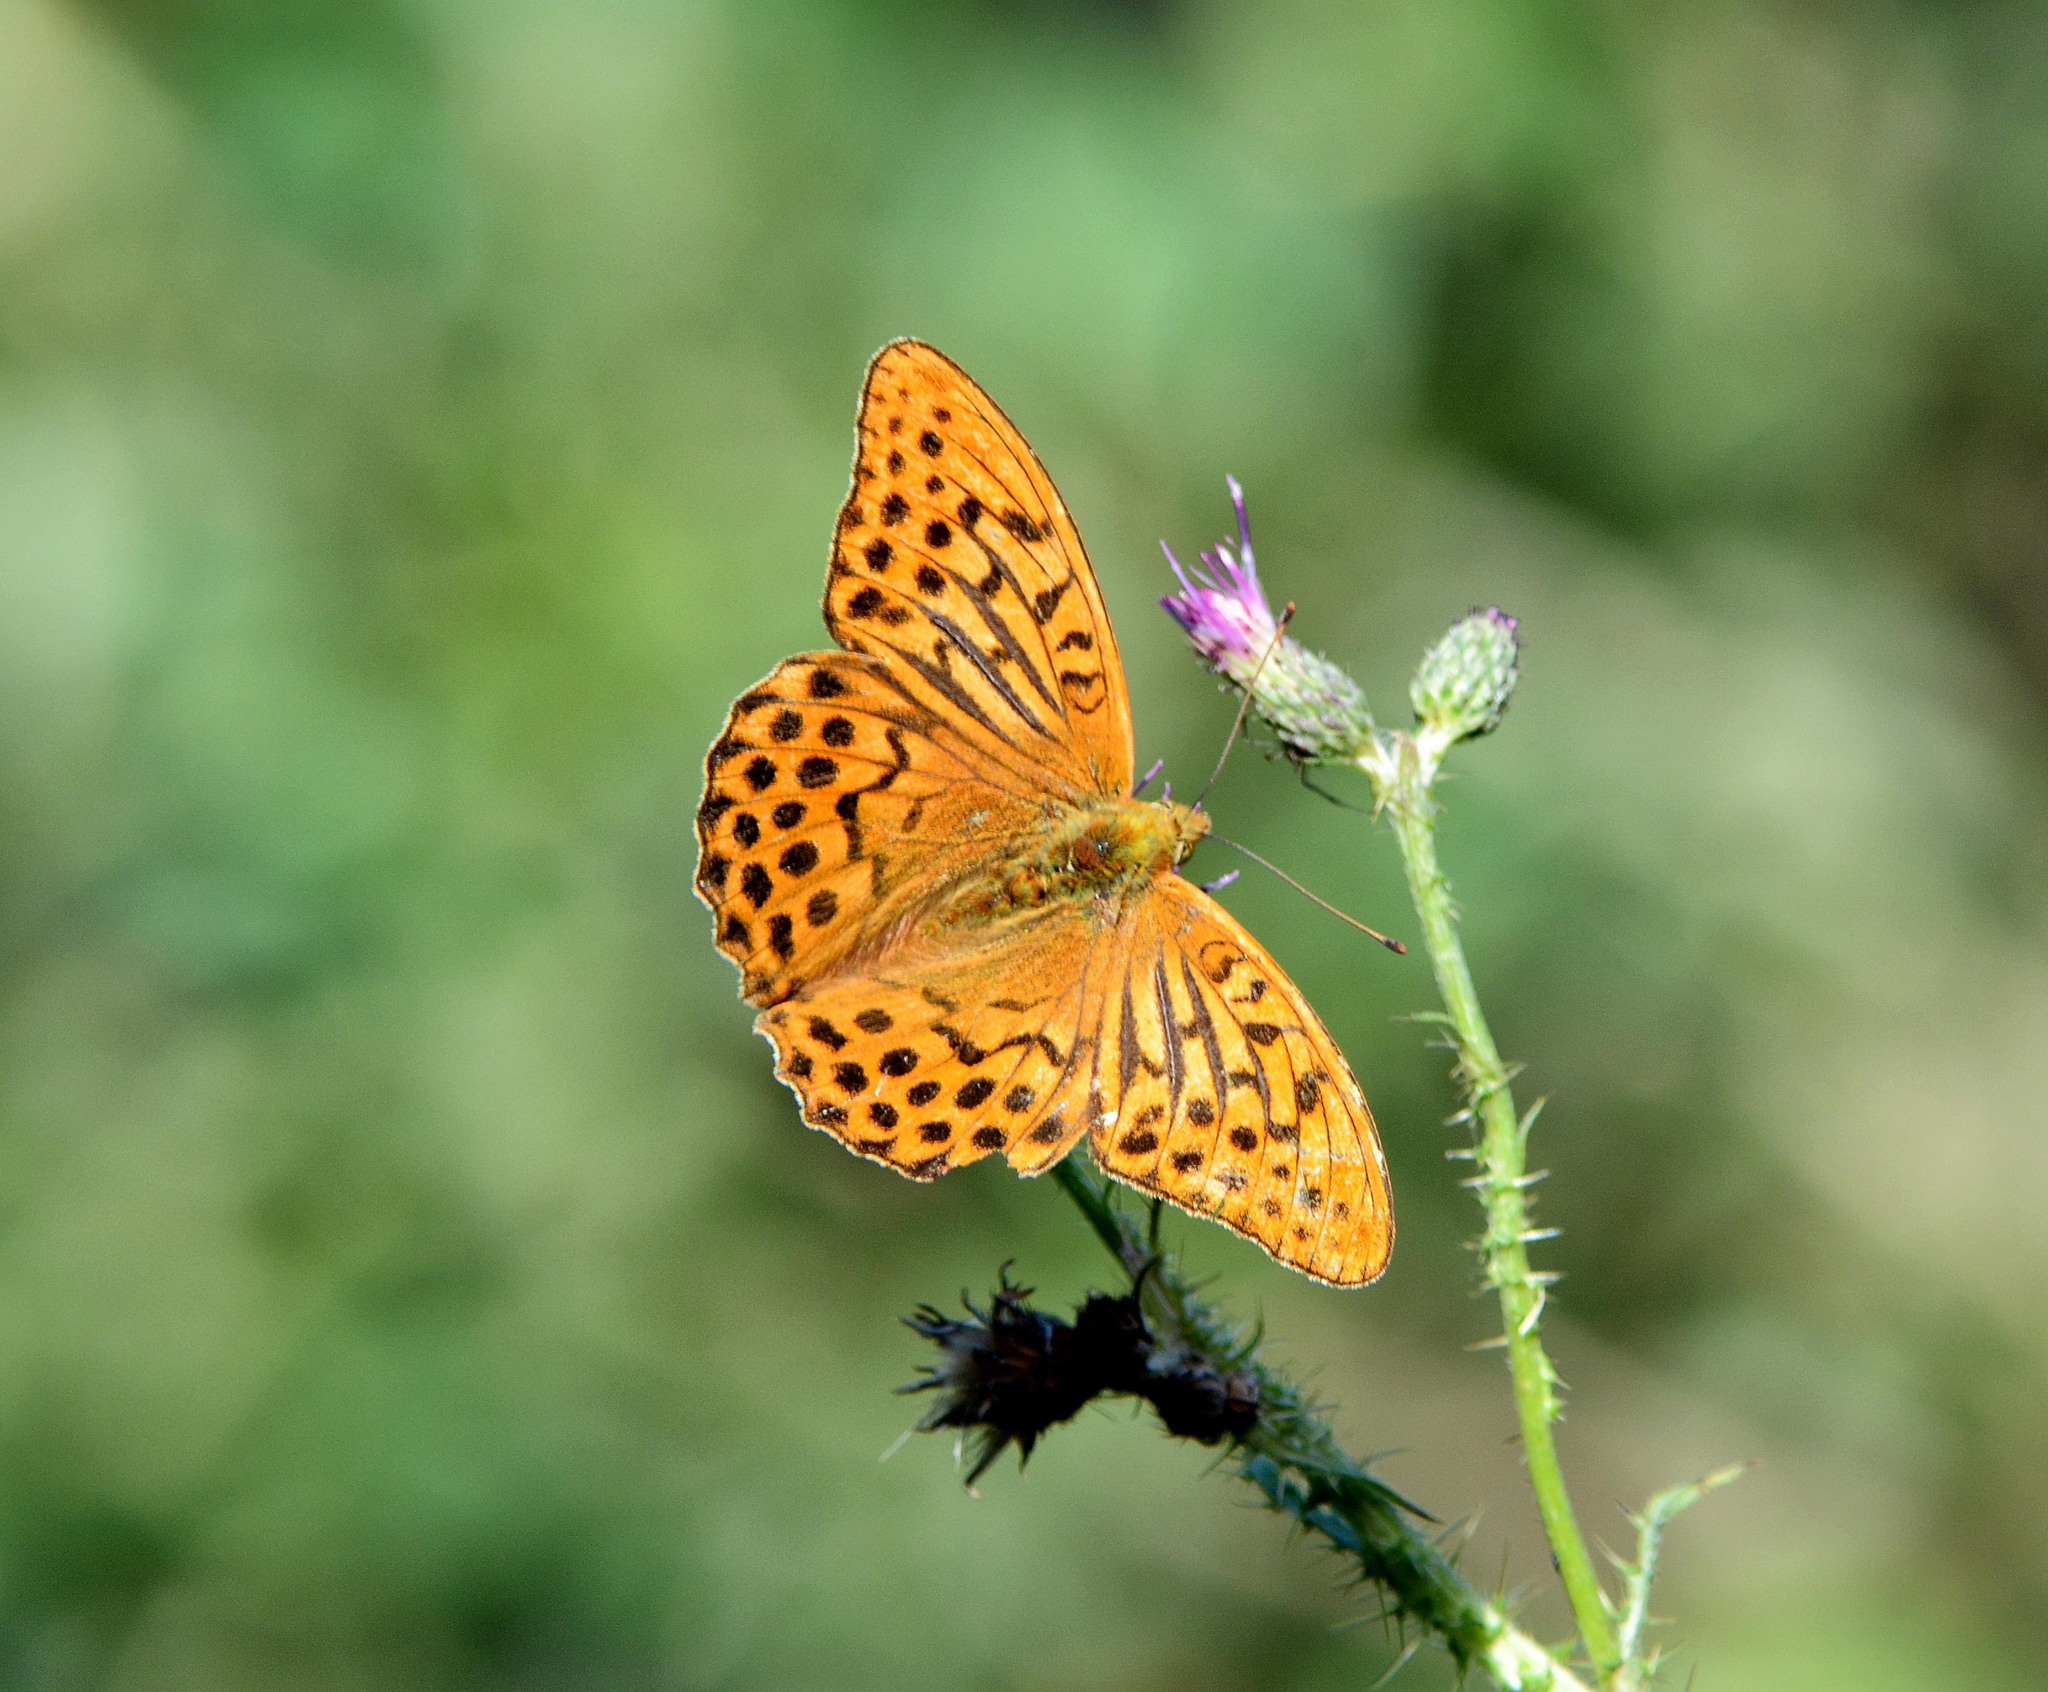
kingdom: Animalia
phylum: Arthropoda
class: Insecta
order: Lepidoptera
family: Nymphalidae
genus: Argynnis
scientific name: Argynnis paphia
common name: Silver-washed fritillary
